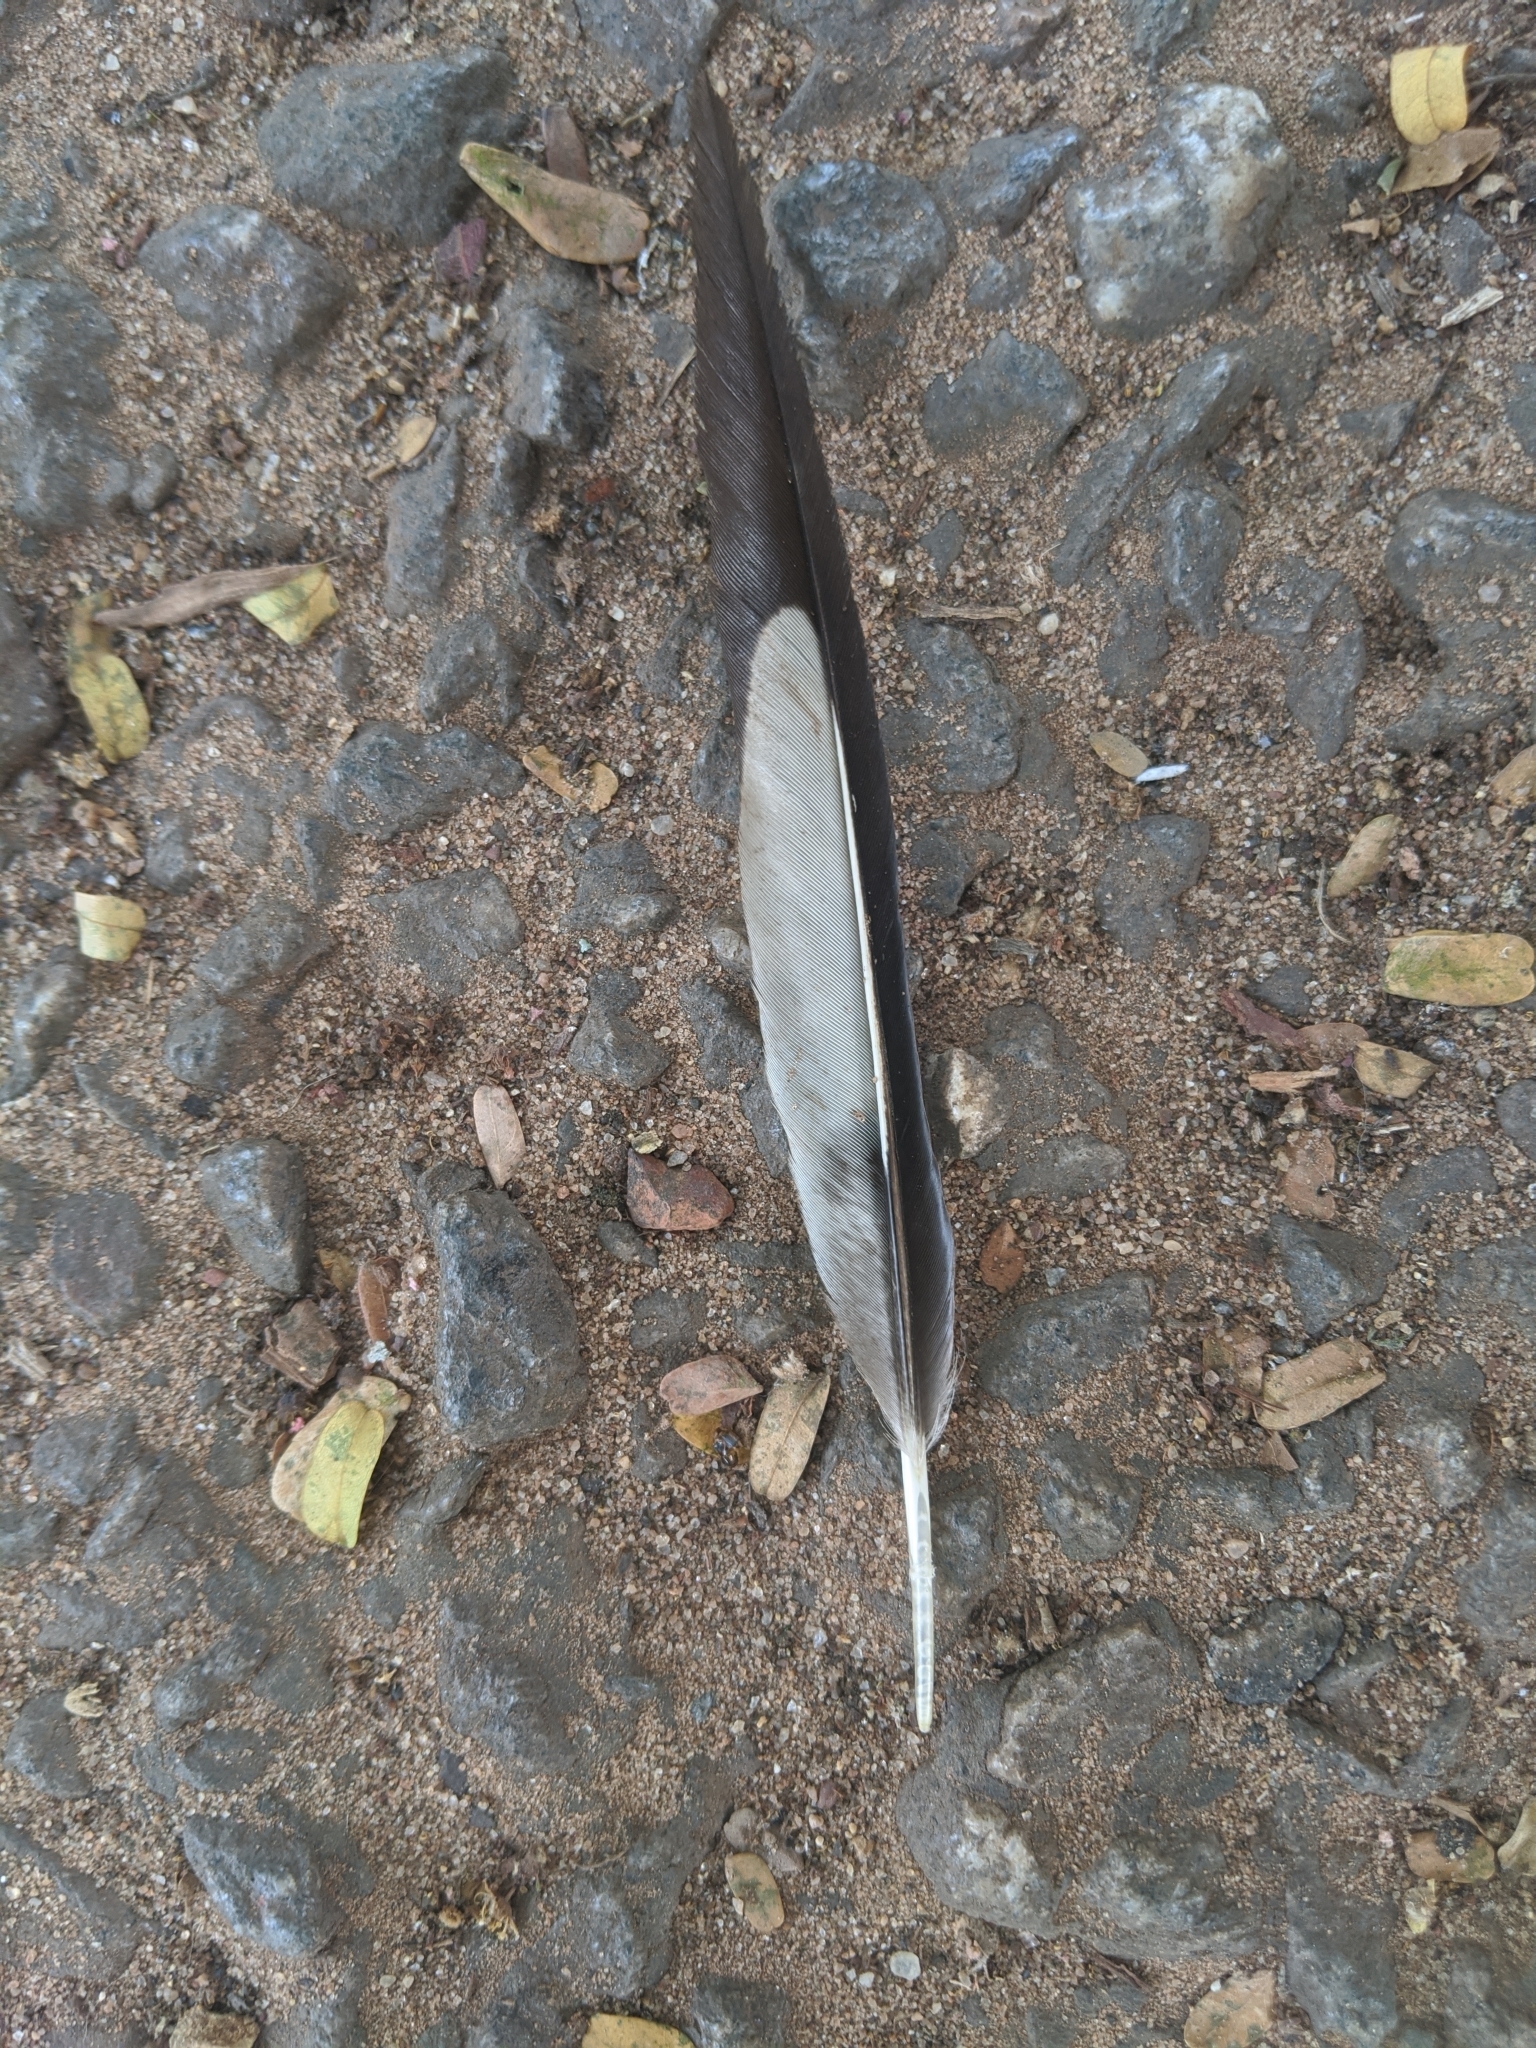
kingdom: Animalia
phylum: Chordata
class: Aves
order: Musophagiformes
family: Musophagidae
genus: Crinifer
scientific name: Crinifer piscator
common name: Western plantain-eater
